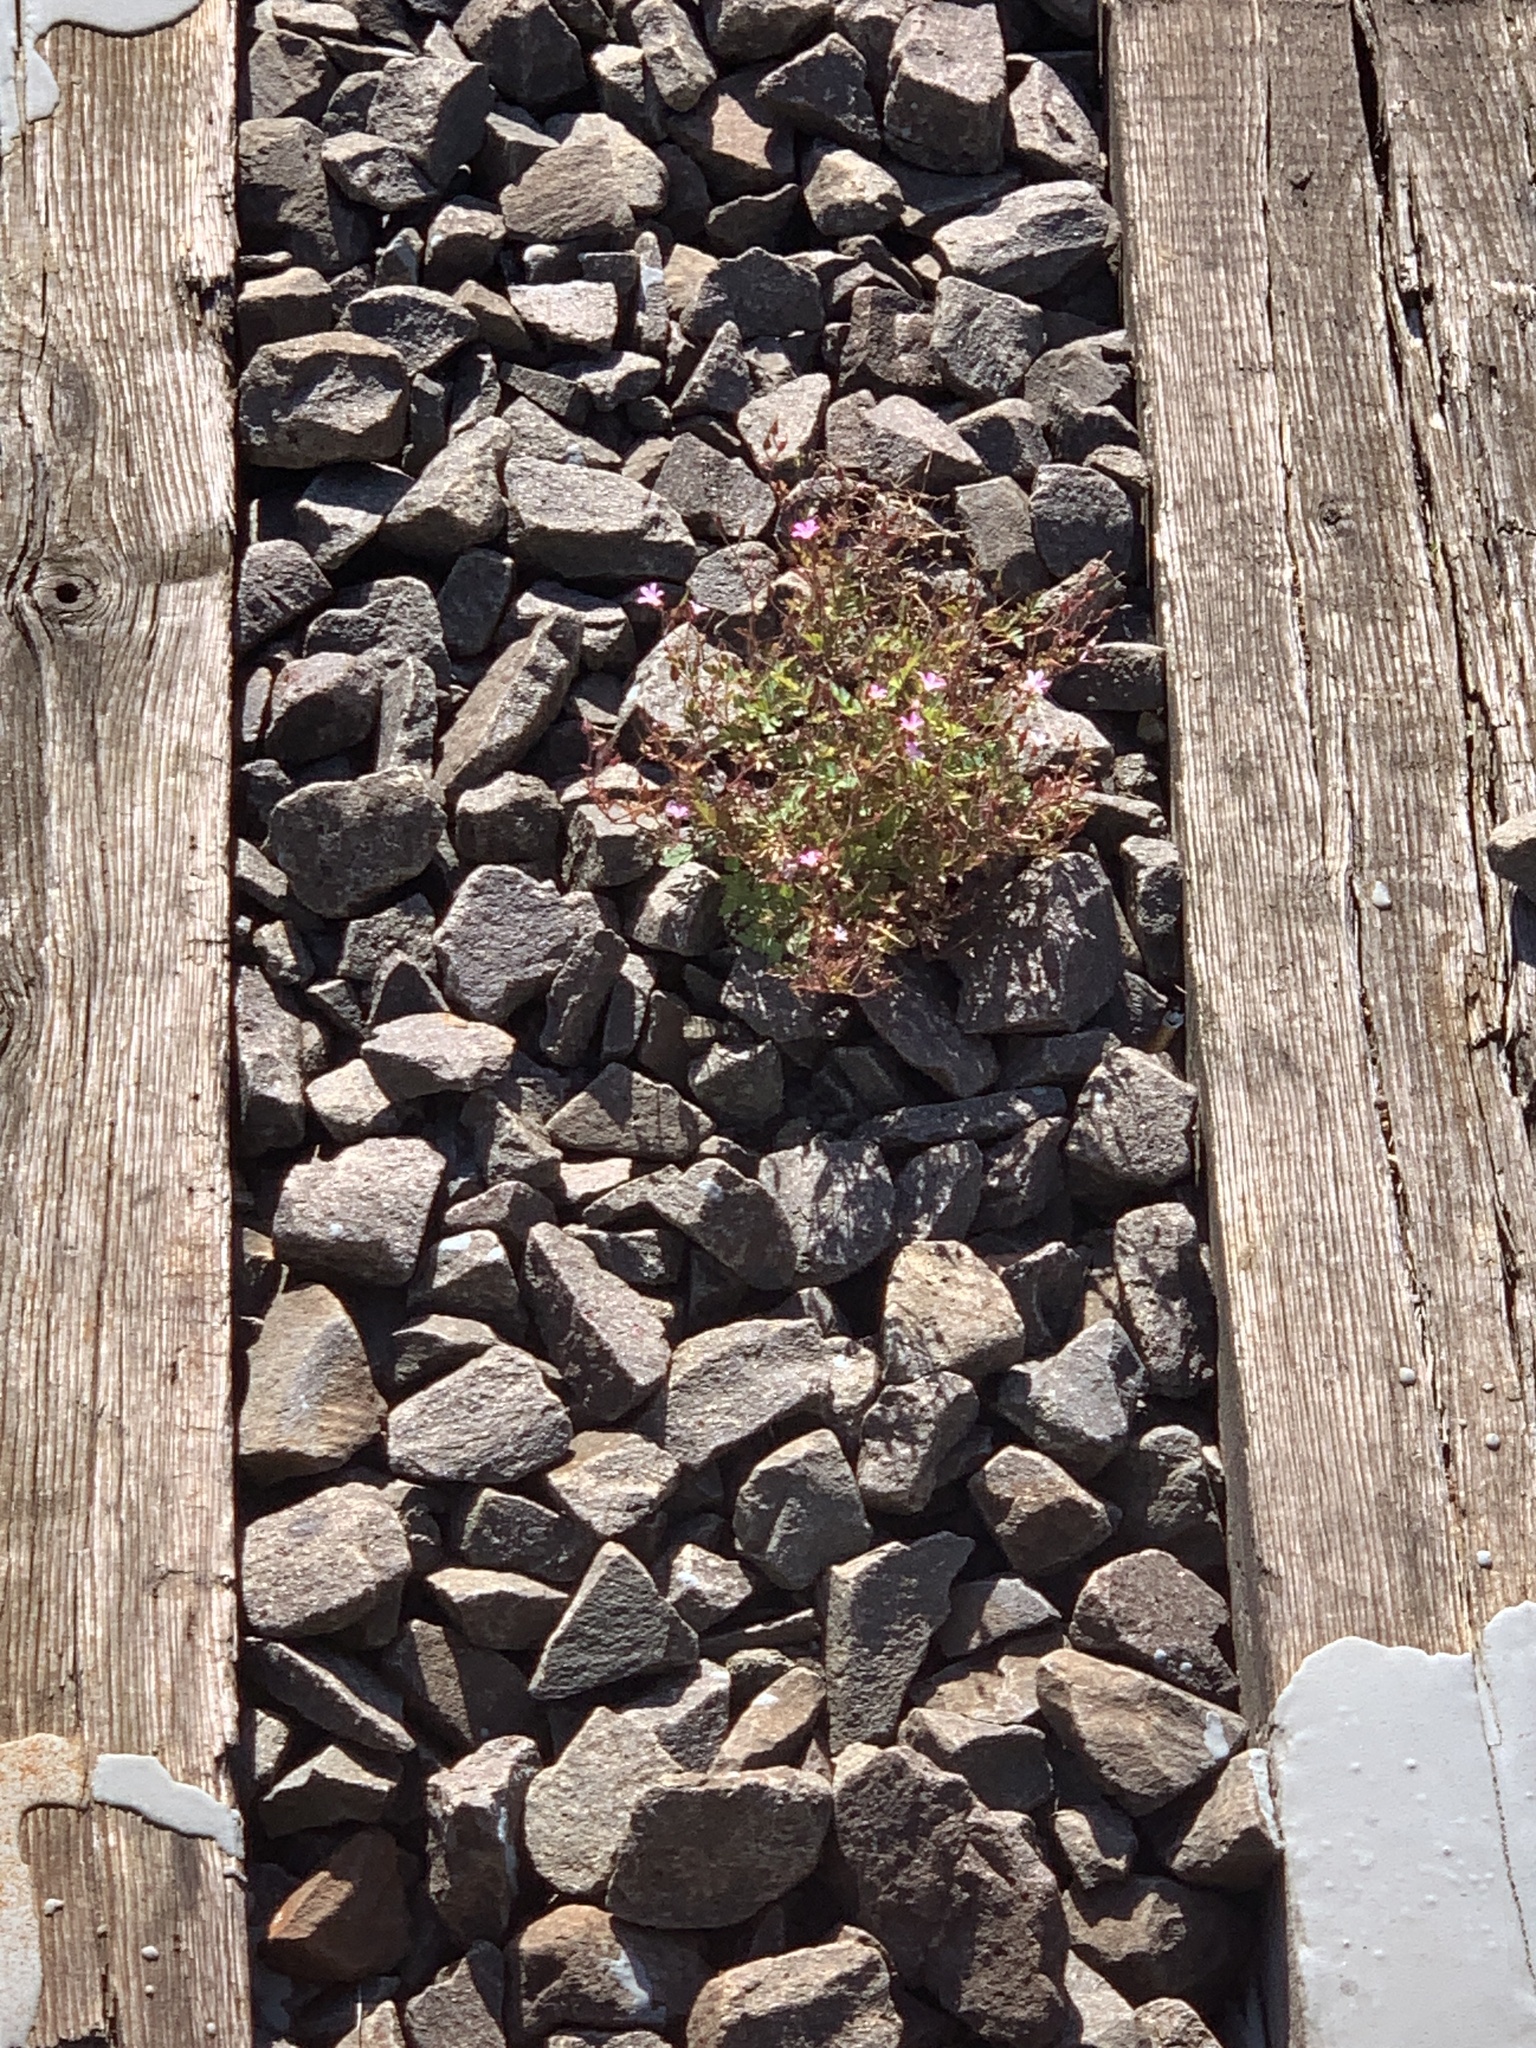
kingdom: Plantae
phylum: Tracheophyta
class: Magnoliopsida
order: Geraniales
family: Geraniaceae
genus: Geranium
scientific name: Geranium robertianum
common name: Herb-robert
